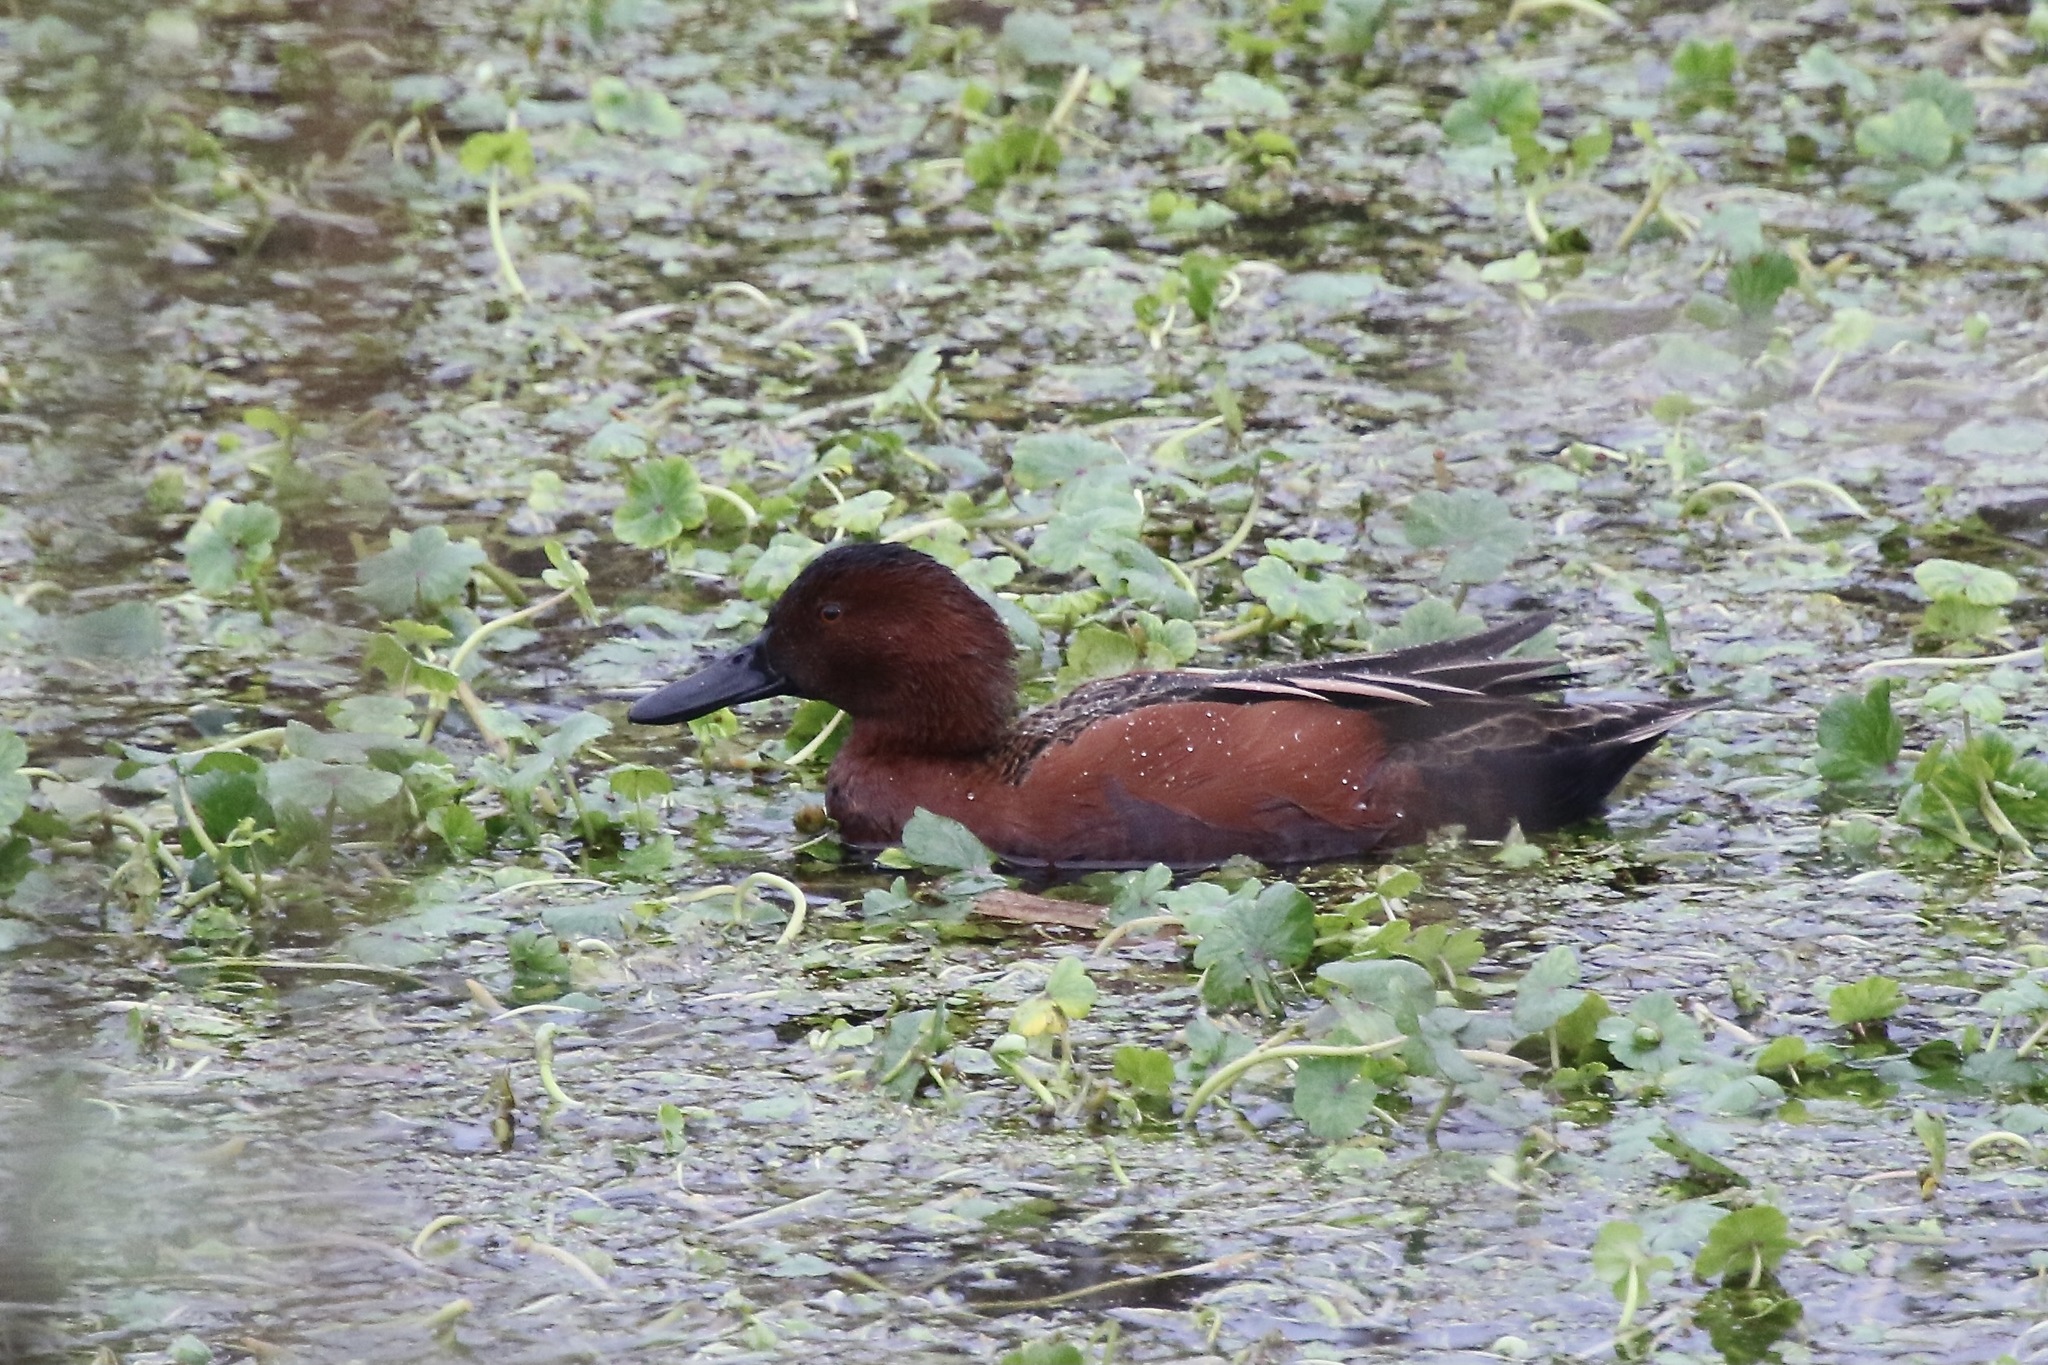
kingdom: Animalia
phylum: Chordata
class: Aves
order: Anseriformes
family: Anatidae
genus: Spatula
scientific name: Spatula cyanoptera
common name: Cinnamon teal
